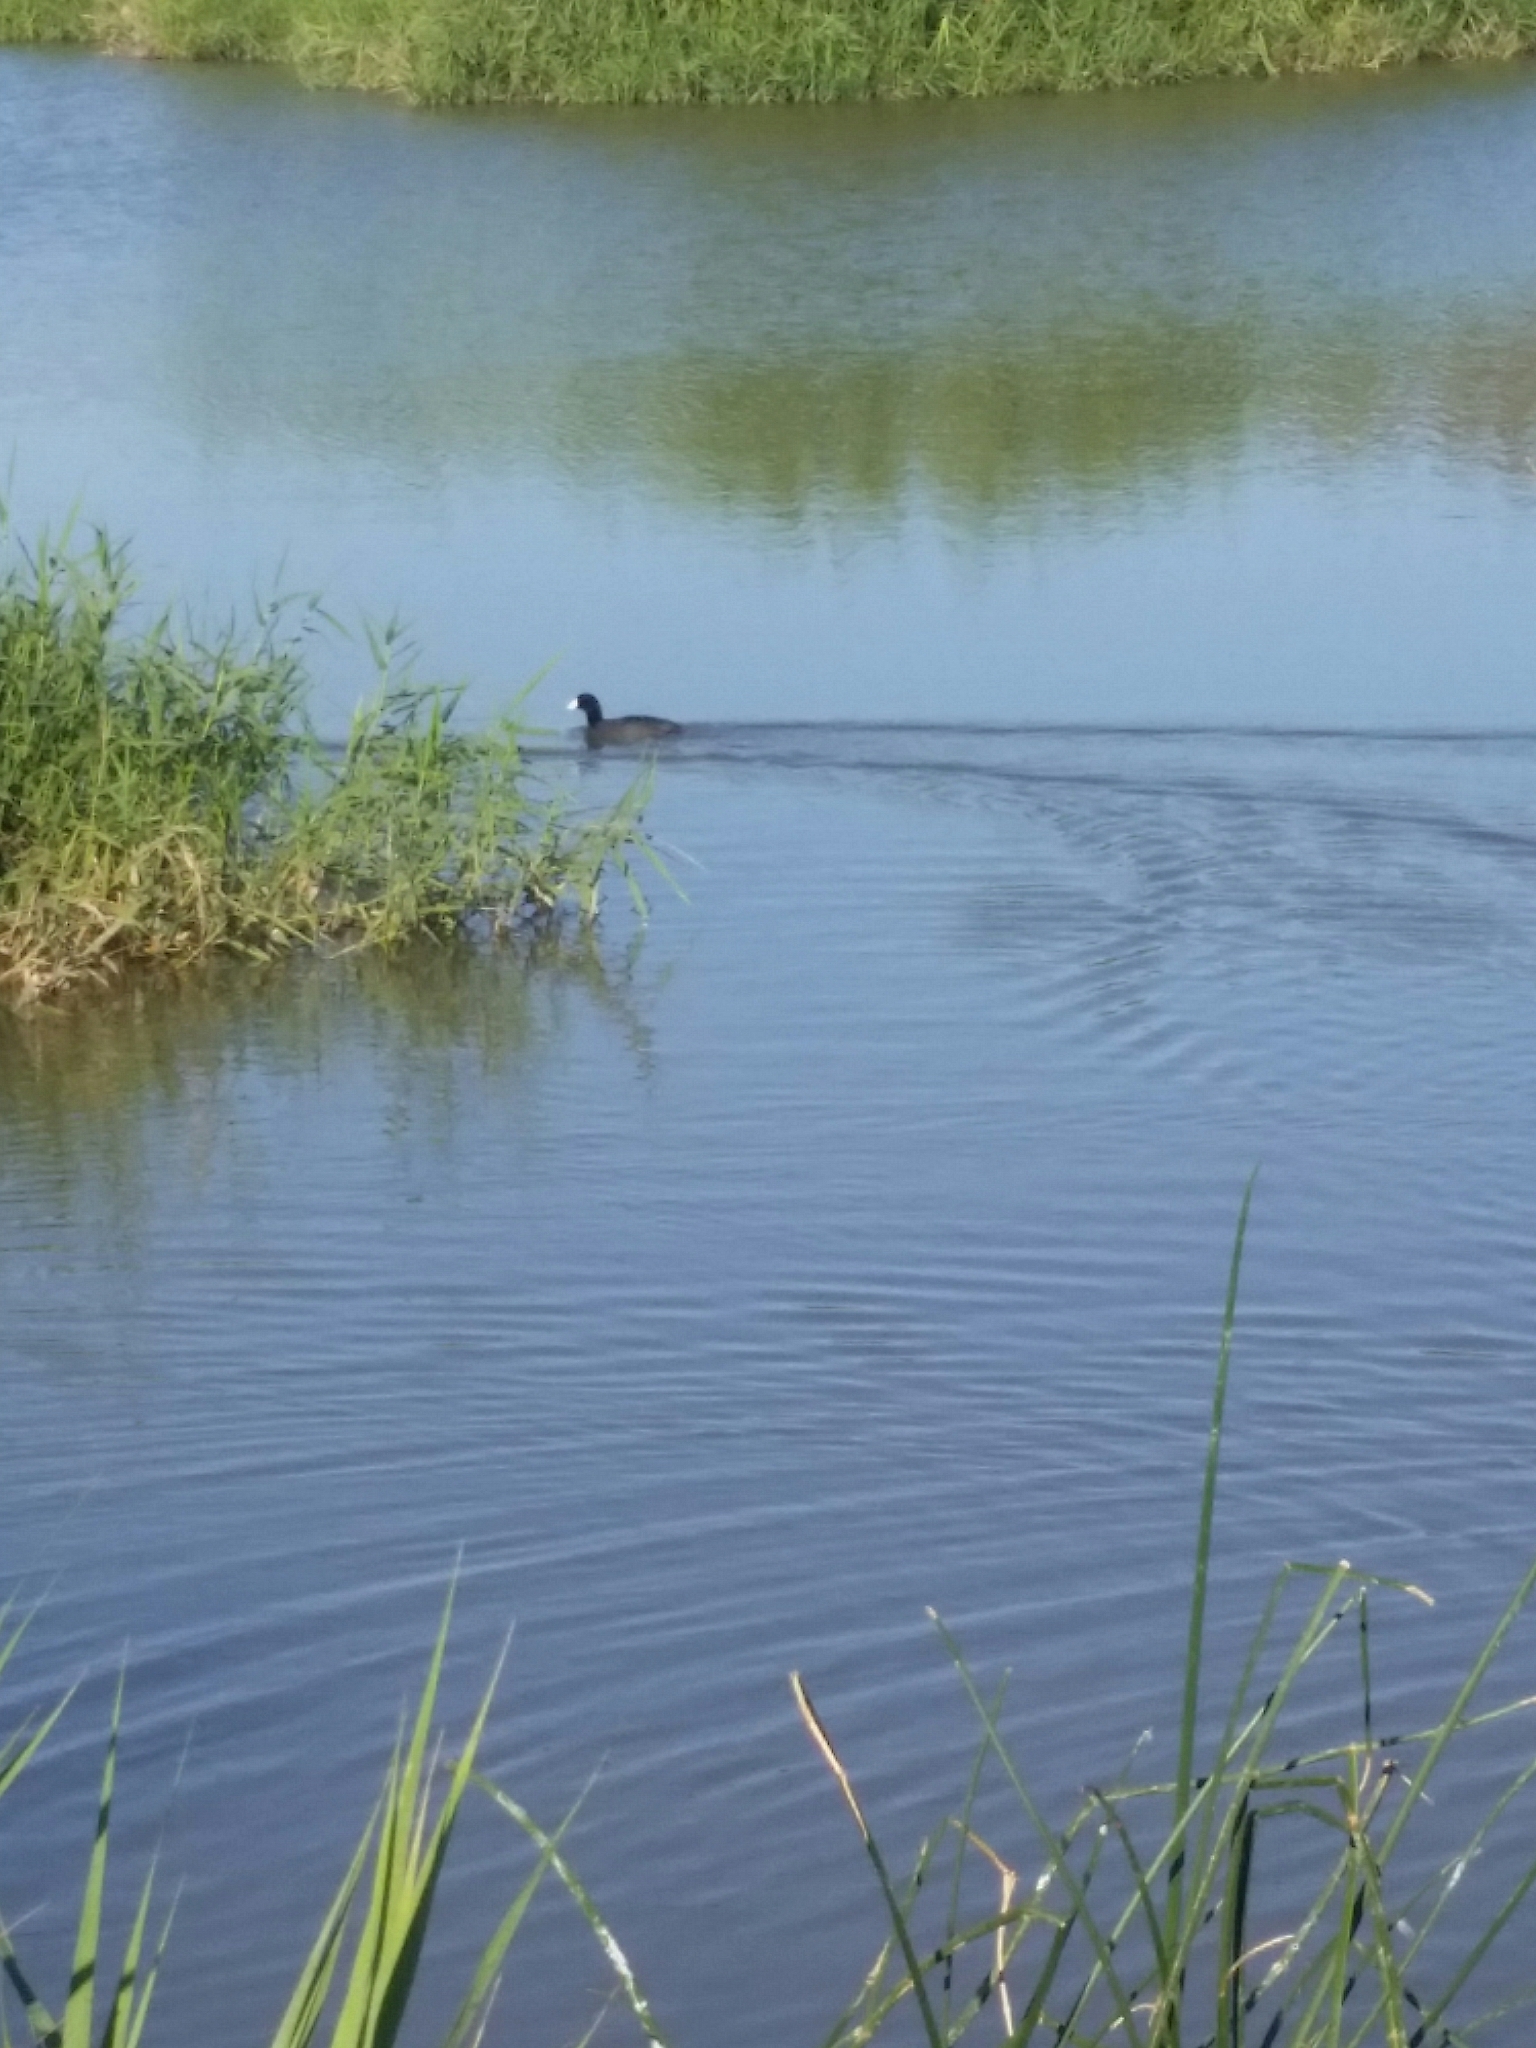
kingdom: Animalia
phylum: Chordata
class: Aves
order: Gruiformes
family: Rallidae
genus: Fulica
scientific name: Fulica americana
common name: American coot
